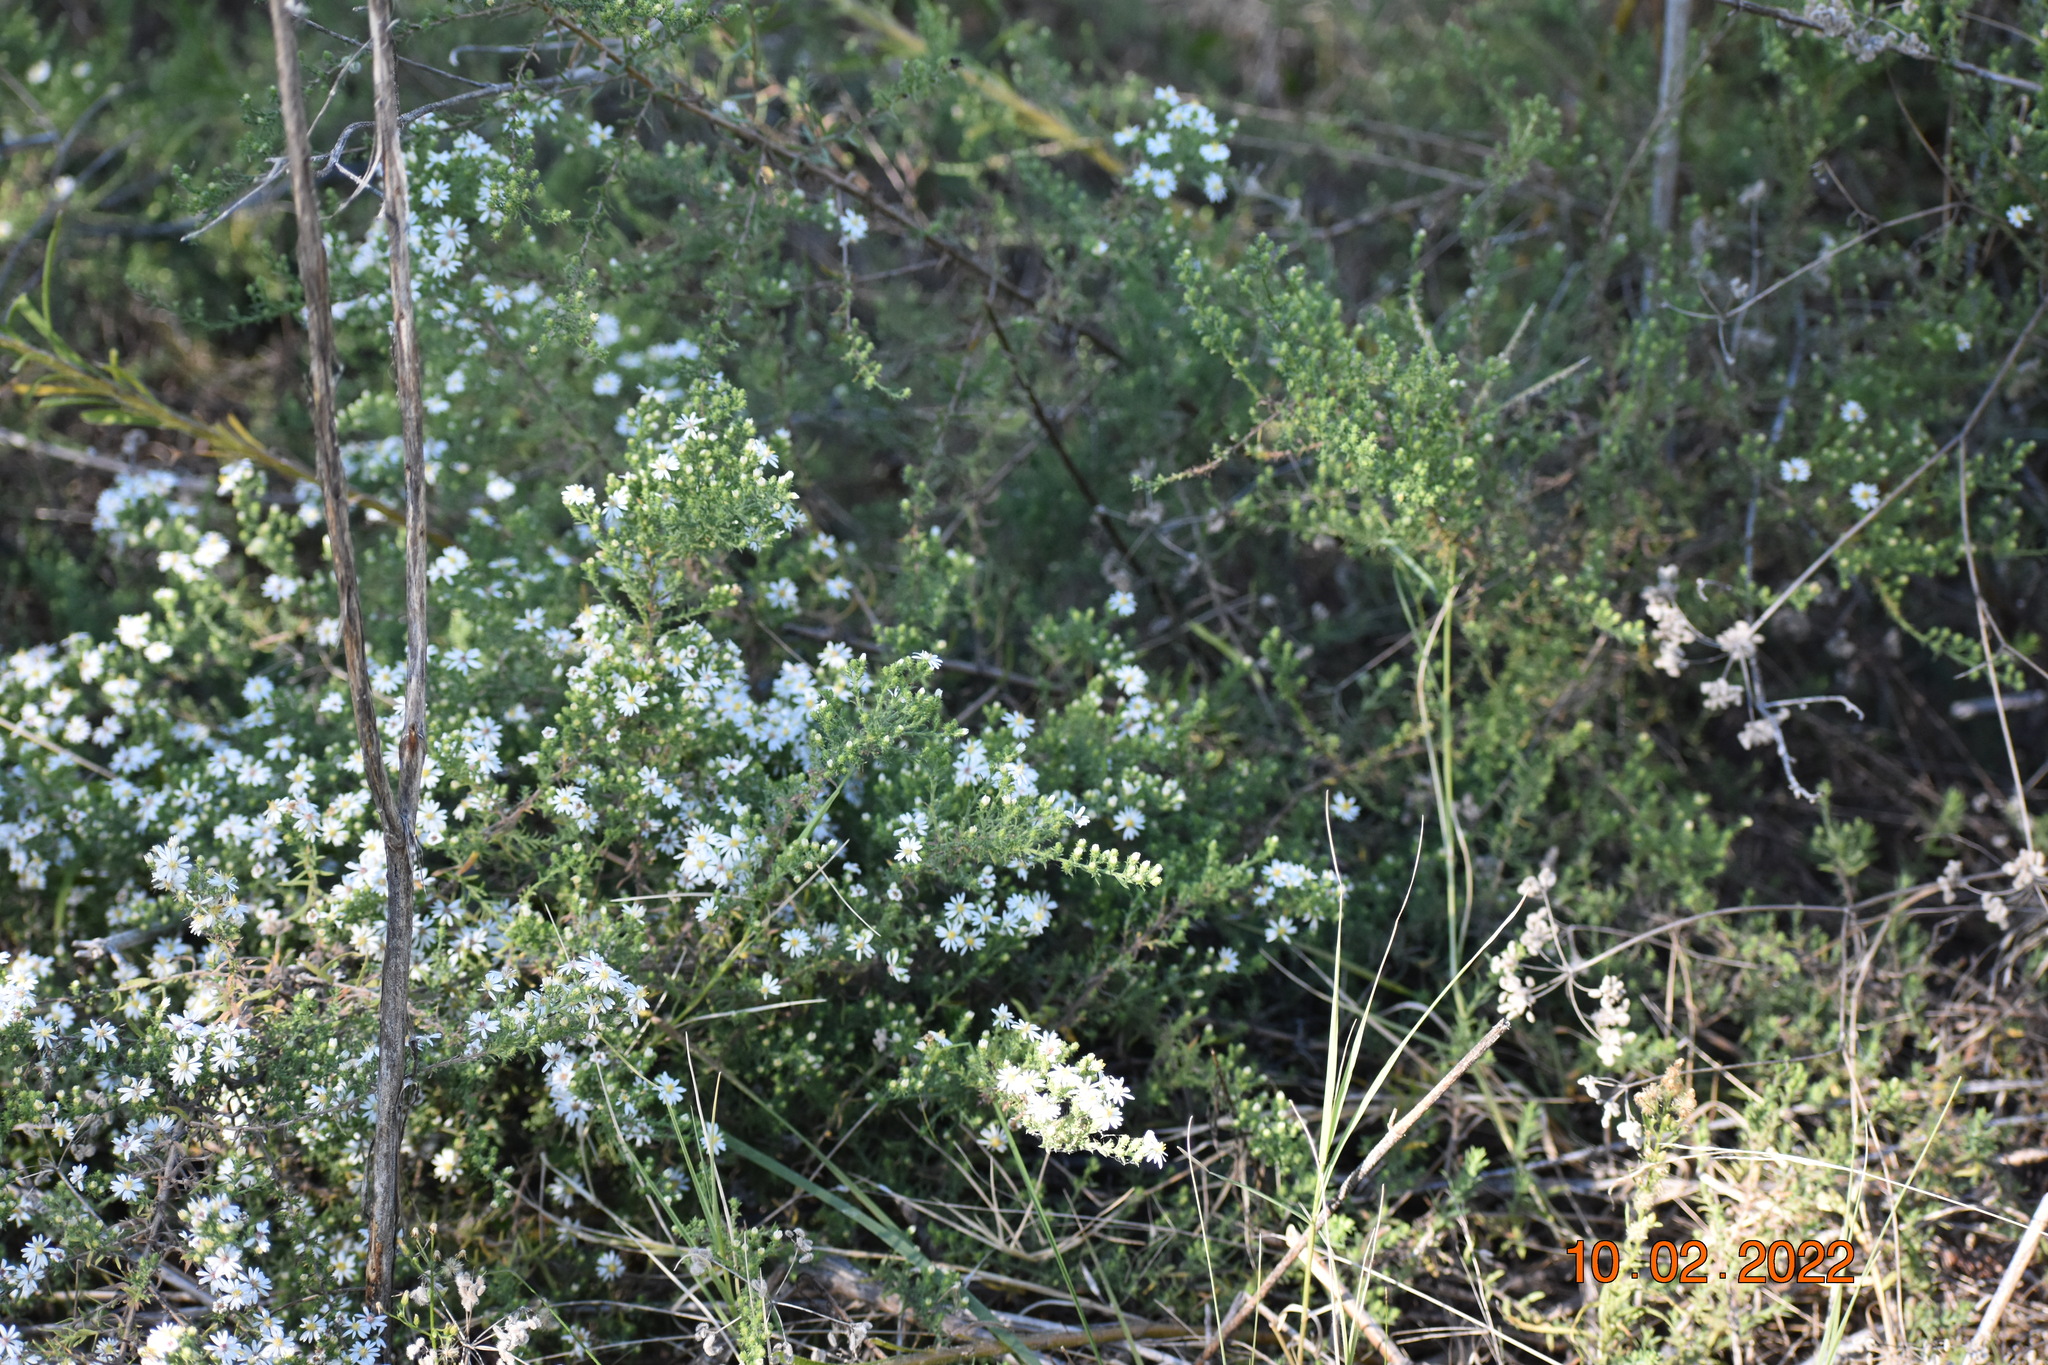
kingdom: Plantae
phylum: Tracheophyta
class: Magnoliopsida
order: Asterales
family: Asteraceae
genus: Symphyotrichum
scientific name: Symphyotrichum ericoides
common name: Heath aster
